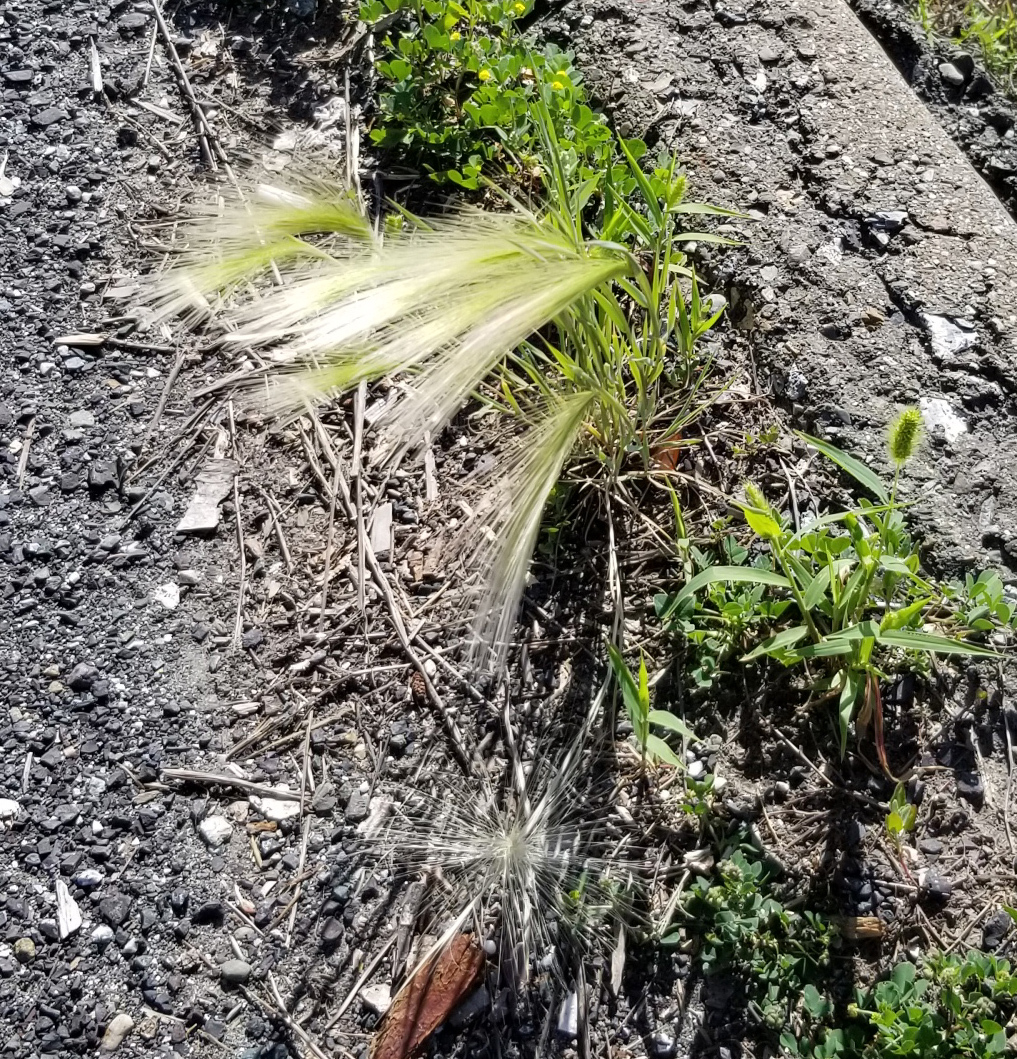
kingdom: Plantae
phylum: Tracheophyta
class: Liliopsida
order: Poales
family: Poaceae
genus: Hordeum
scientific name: Hordeum jubatum
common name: Foxtail barley
